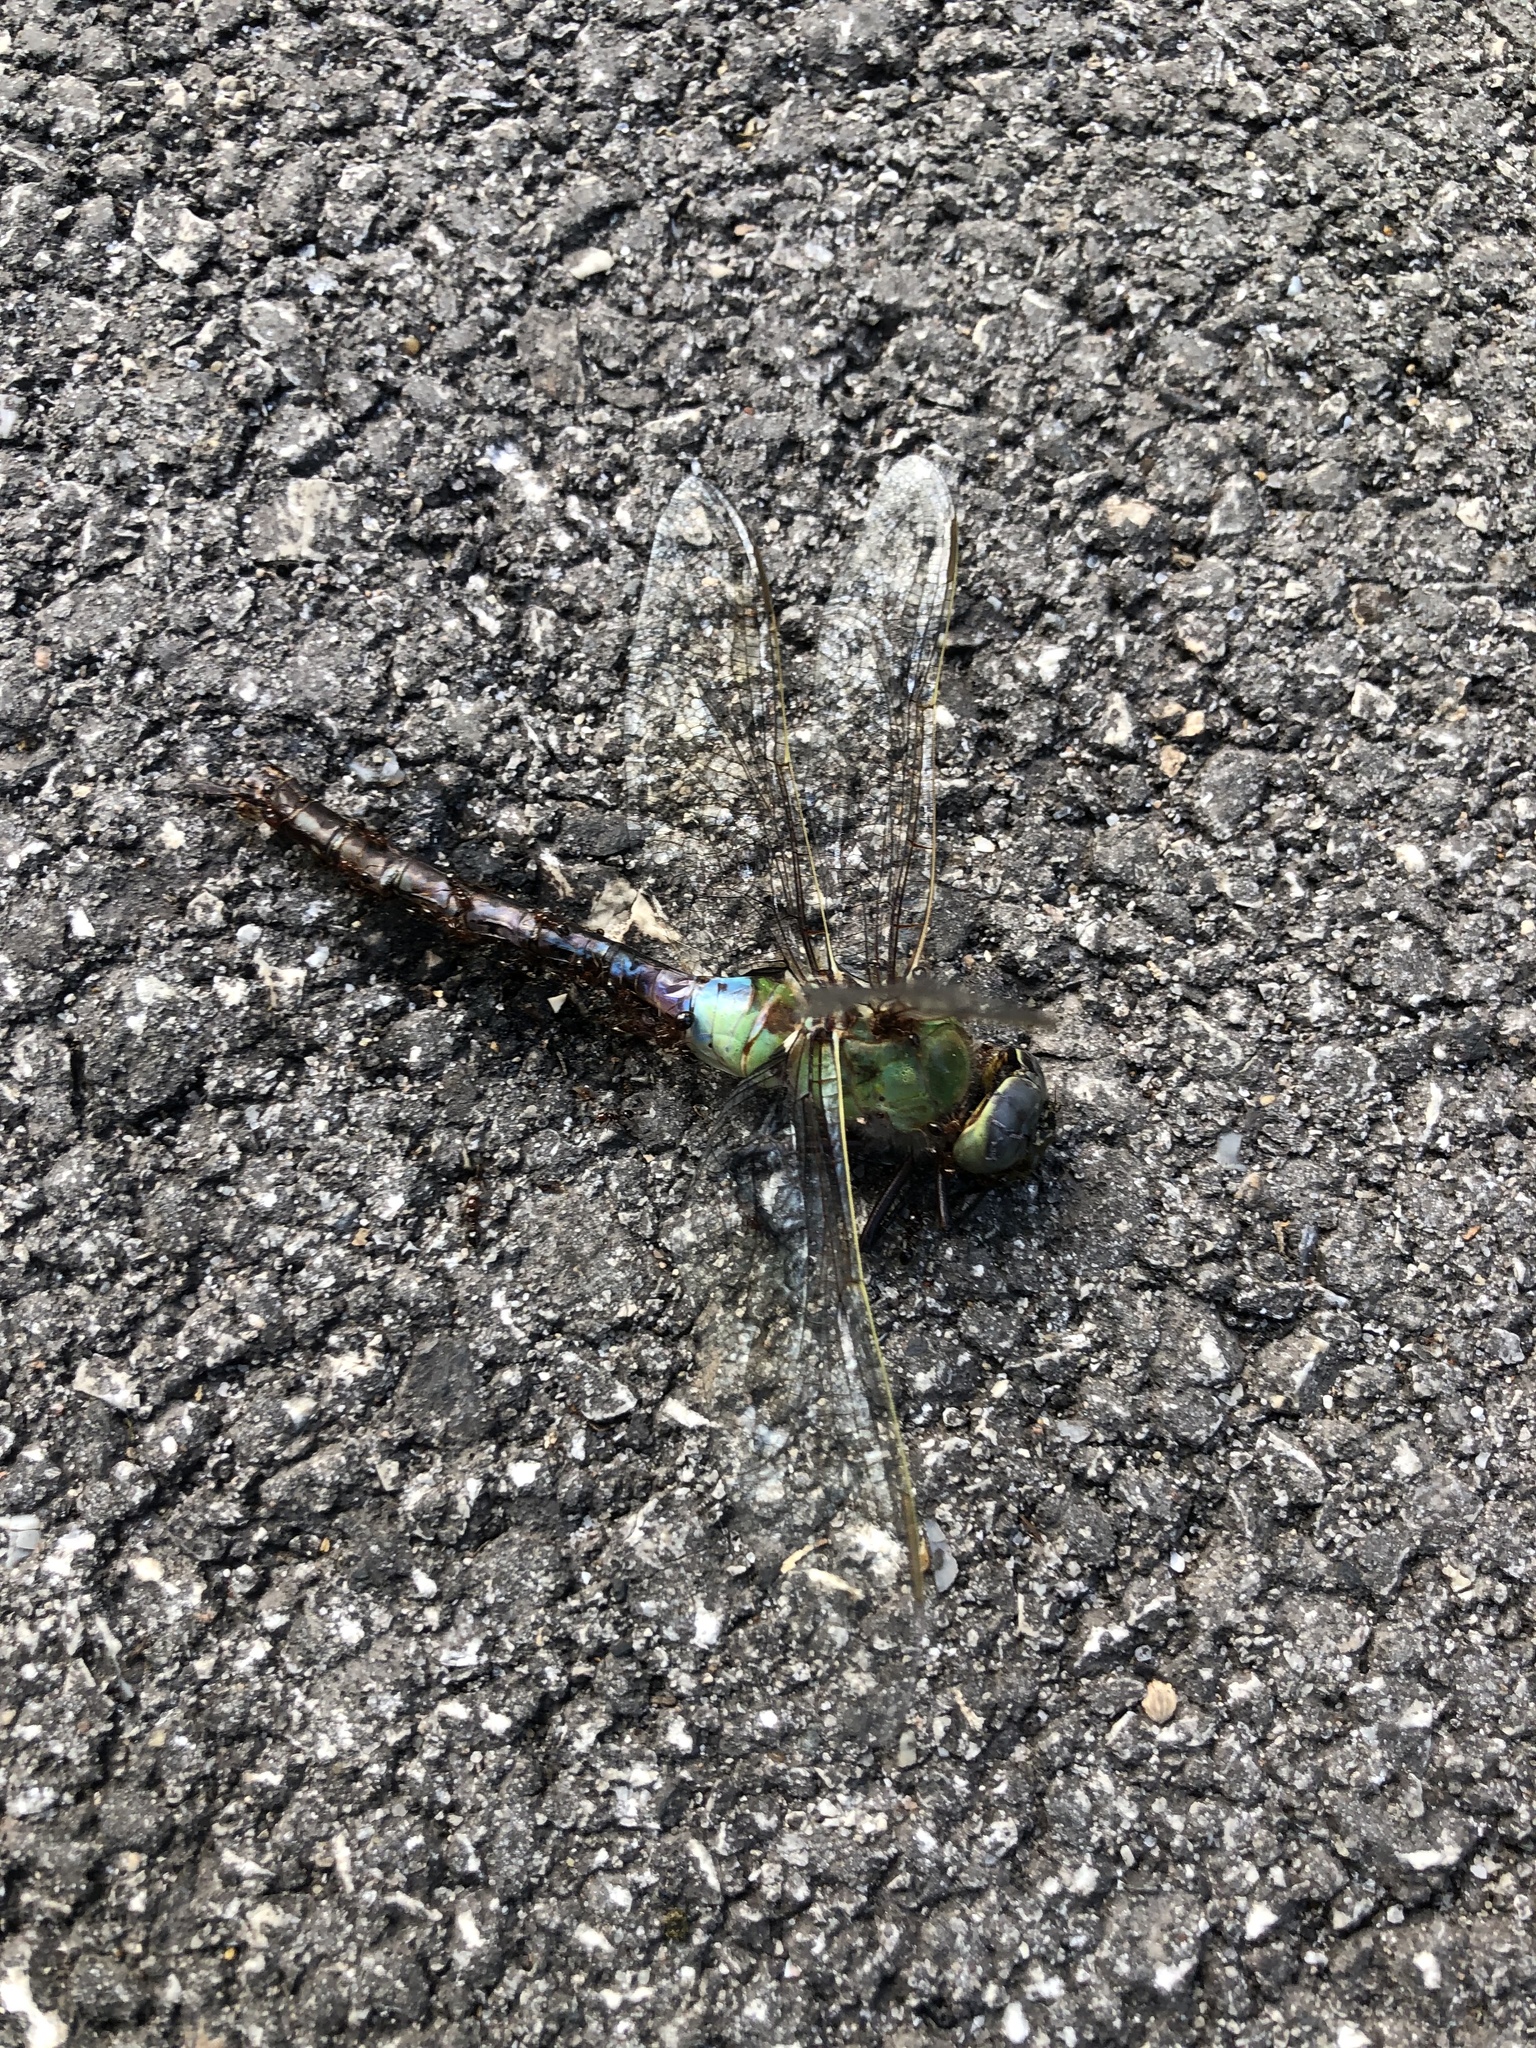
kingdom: Animalia
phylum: Arthropoda
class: Insecta
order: Odonata
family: Aeshnidae
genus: Anax
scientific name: Anax junius
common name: Common green darner
